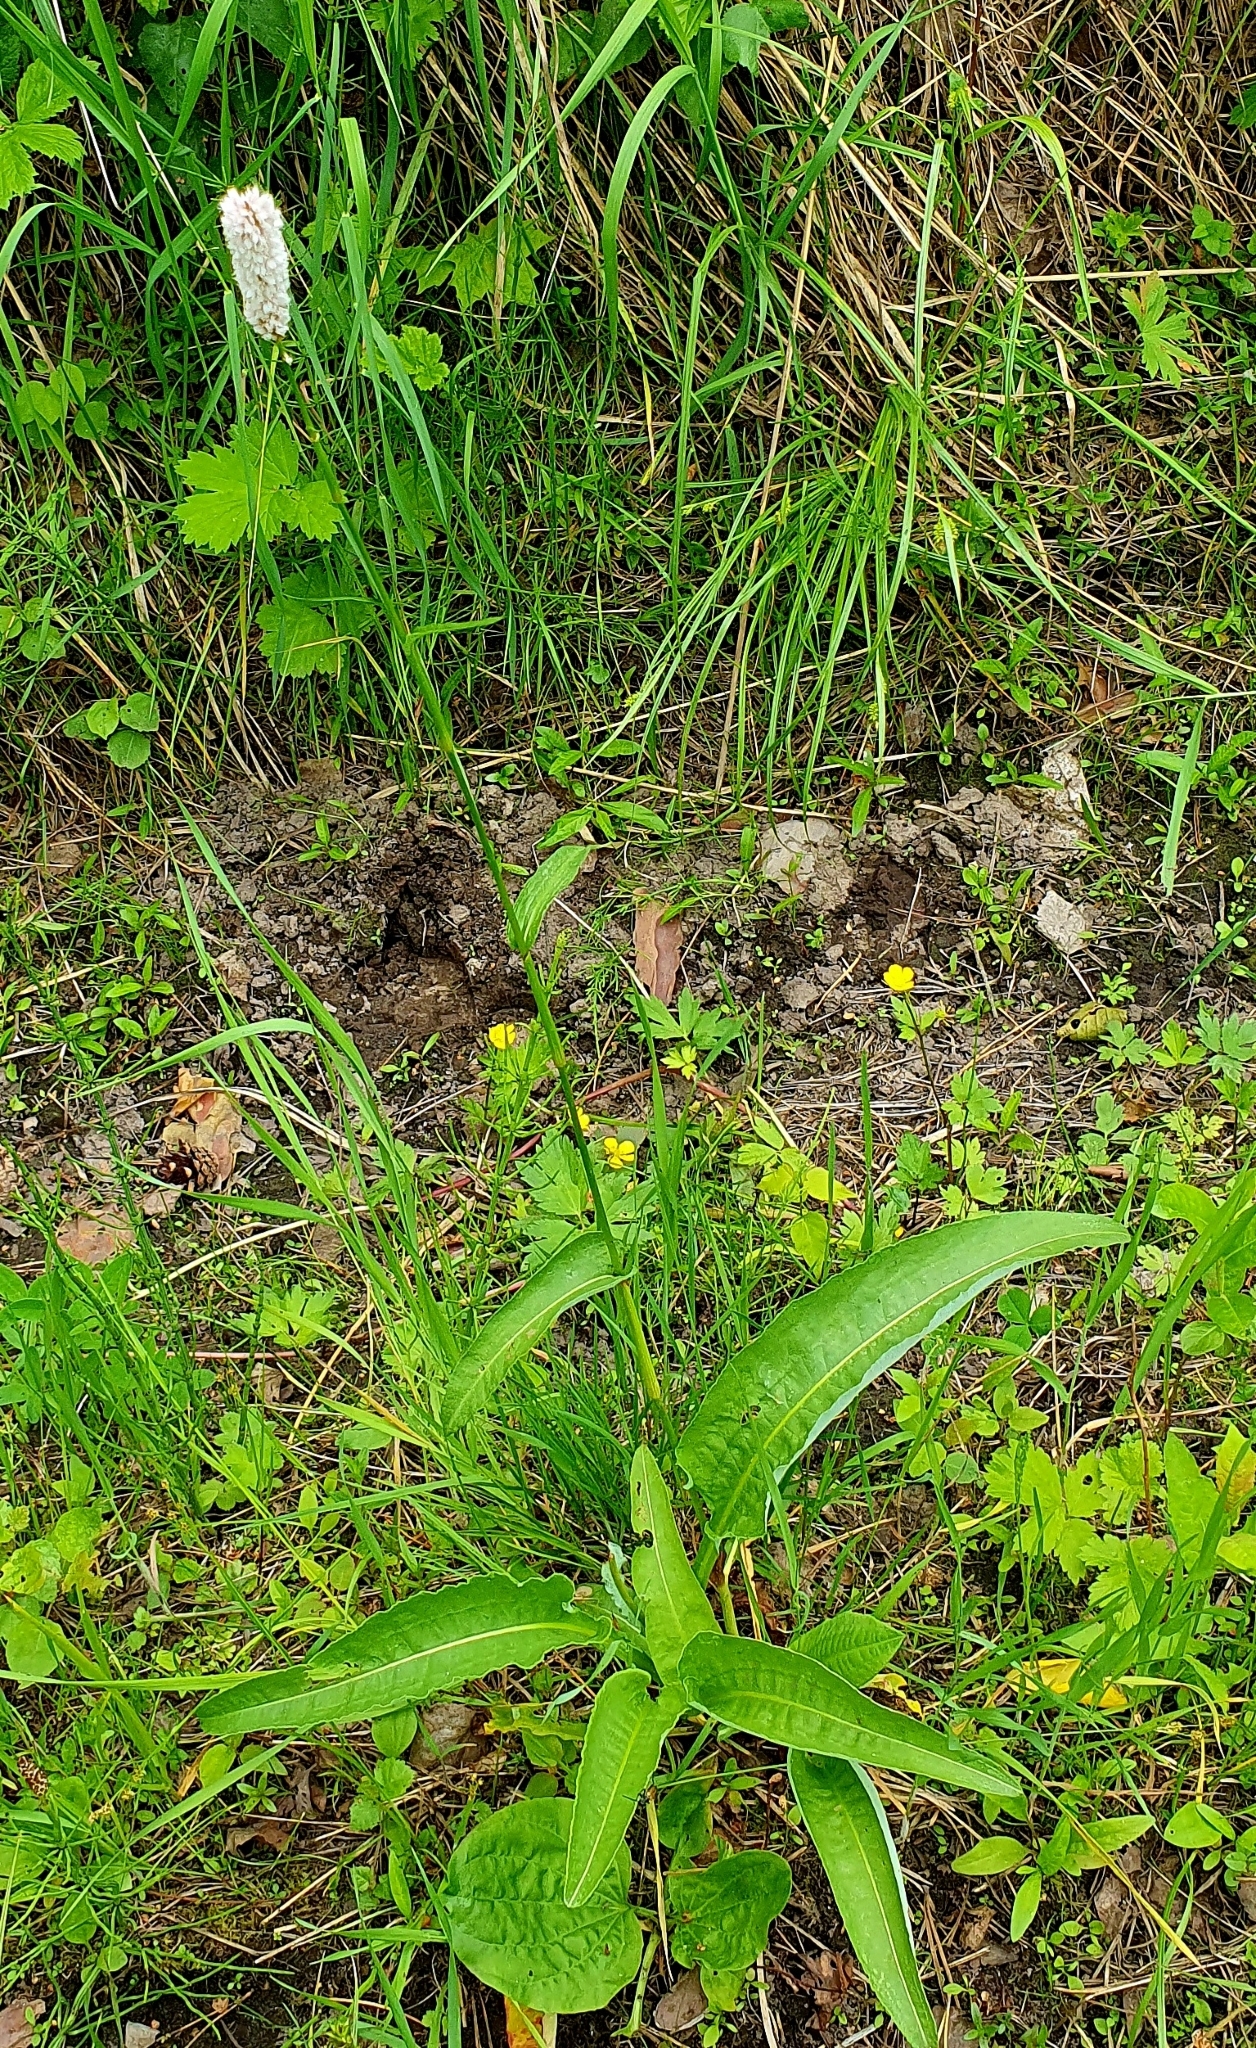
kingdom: Plantae
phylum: Tracheophyta
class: Magnoliopsida
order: Caryophyllales
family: Polygonaceae
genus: Bistorta
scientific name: Bistorta officinalis
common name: Common bistort
